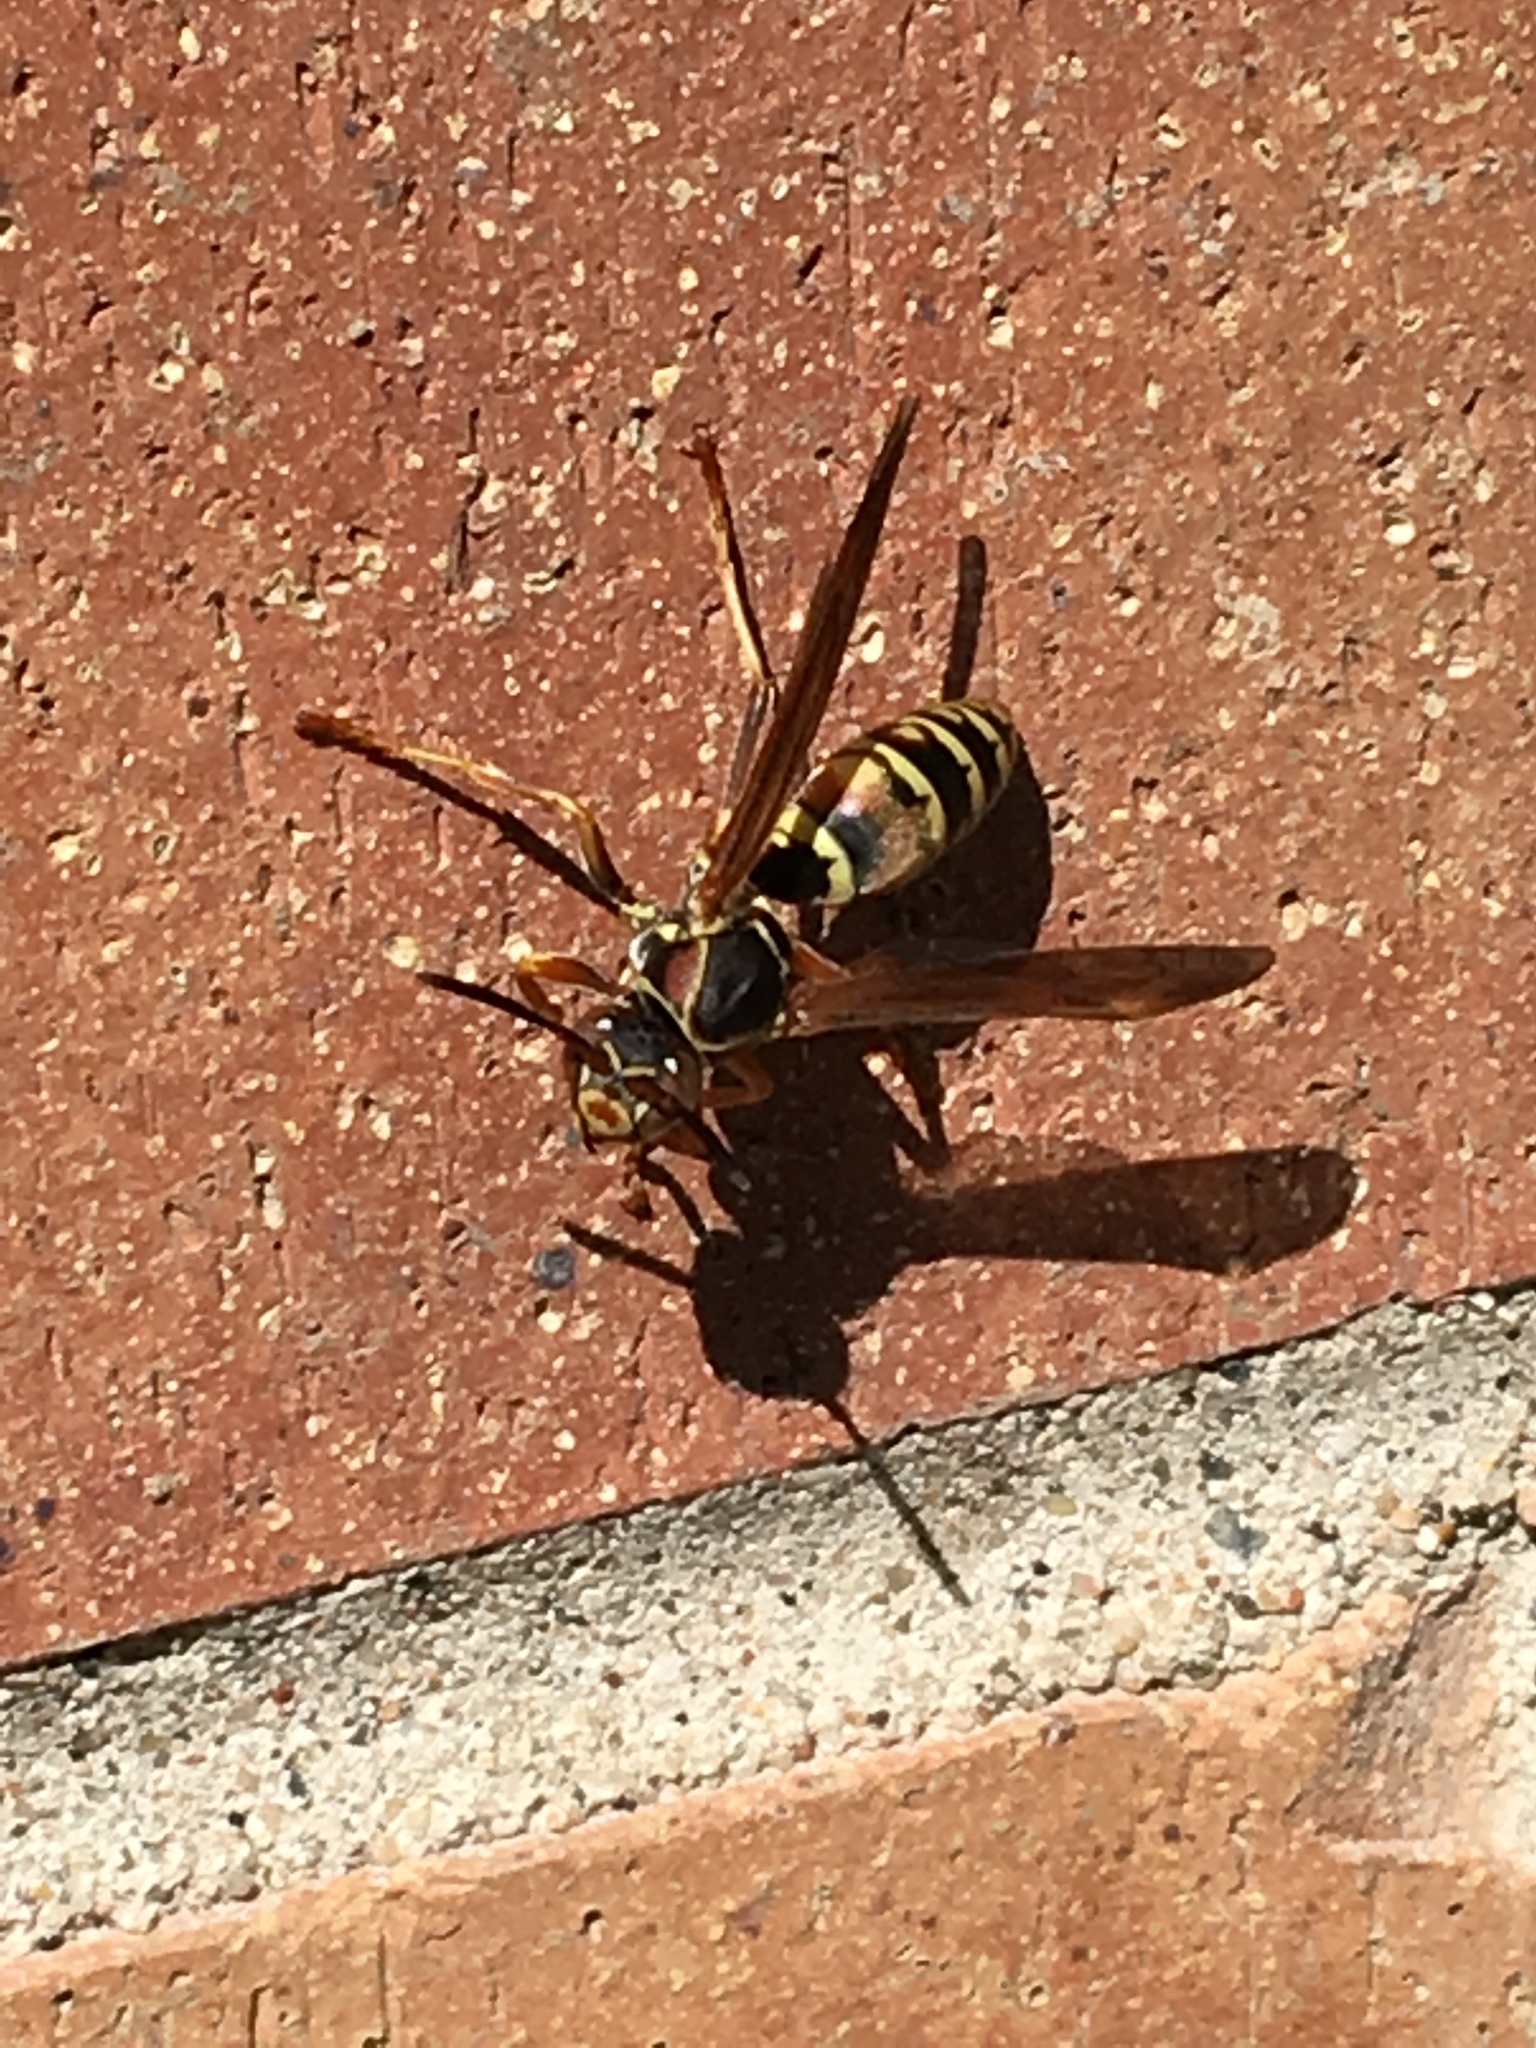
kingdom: Animalia
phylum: Arthropoda
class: Insecta
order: Hymenoptera
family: Eumenidae
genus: Polistes
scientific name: Polistes fuscatus
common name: Dark paper wasp
